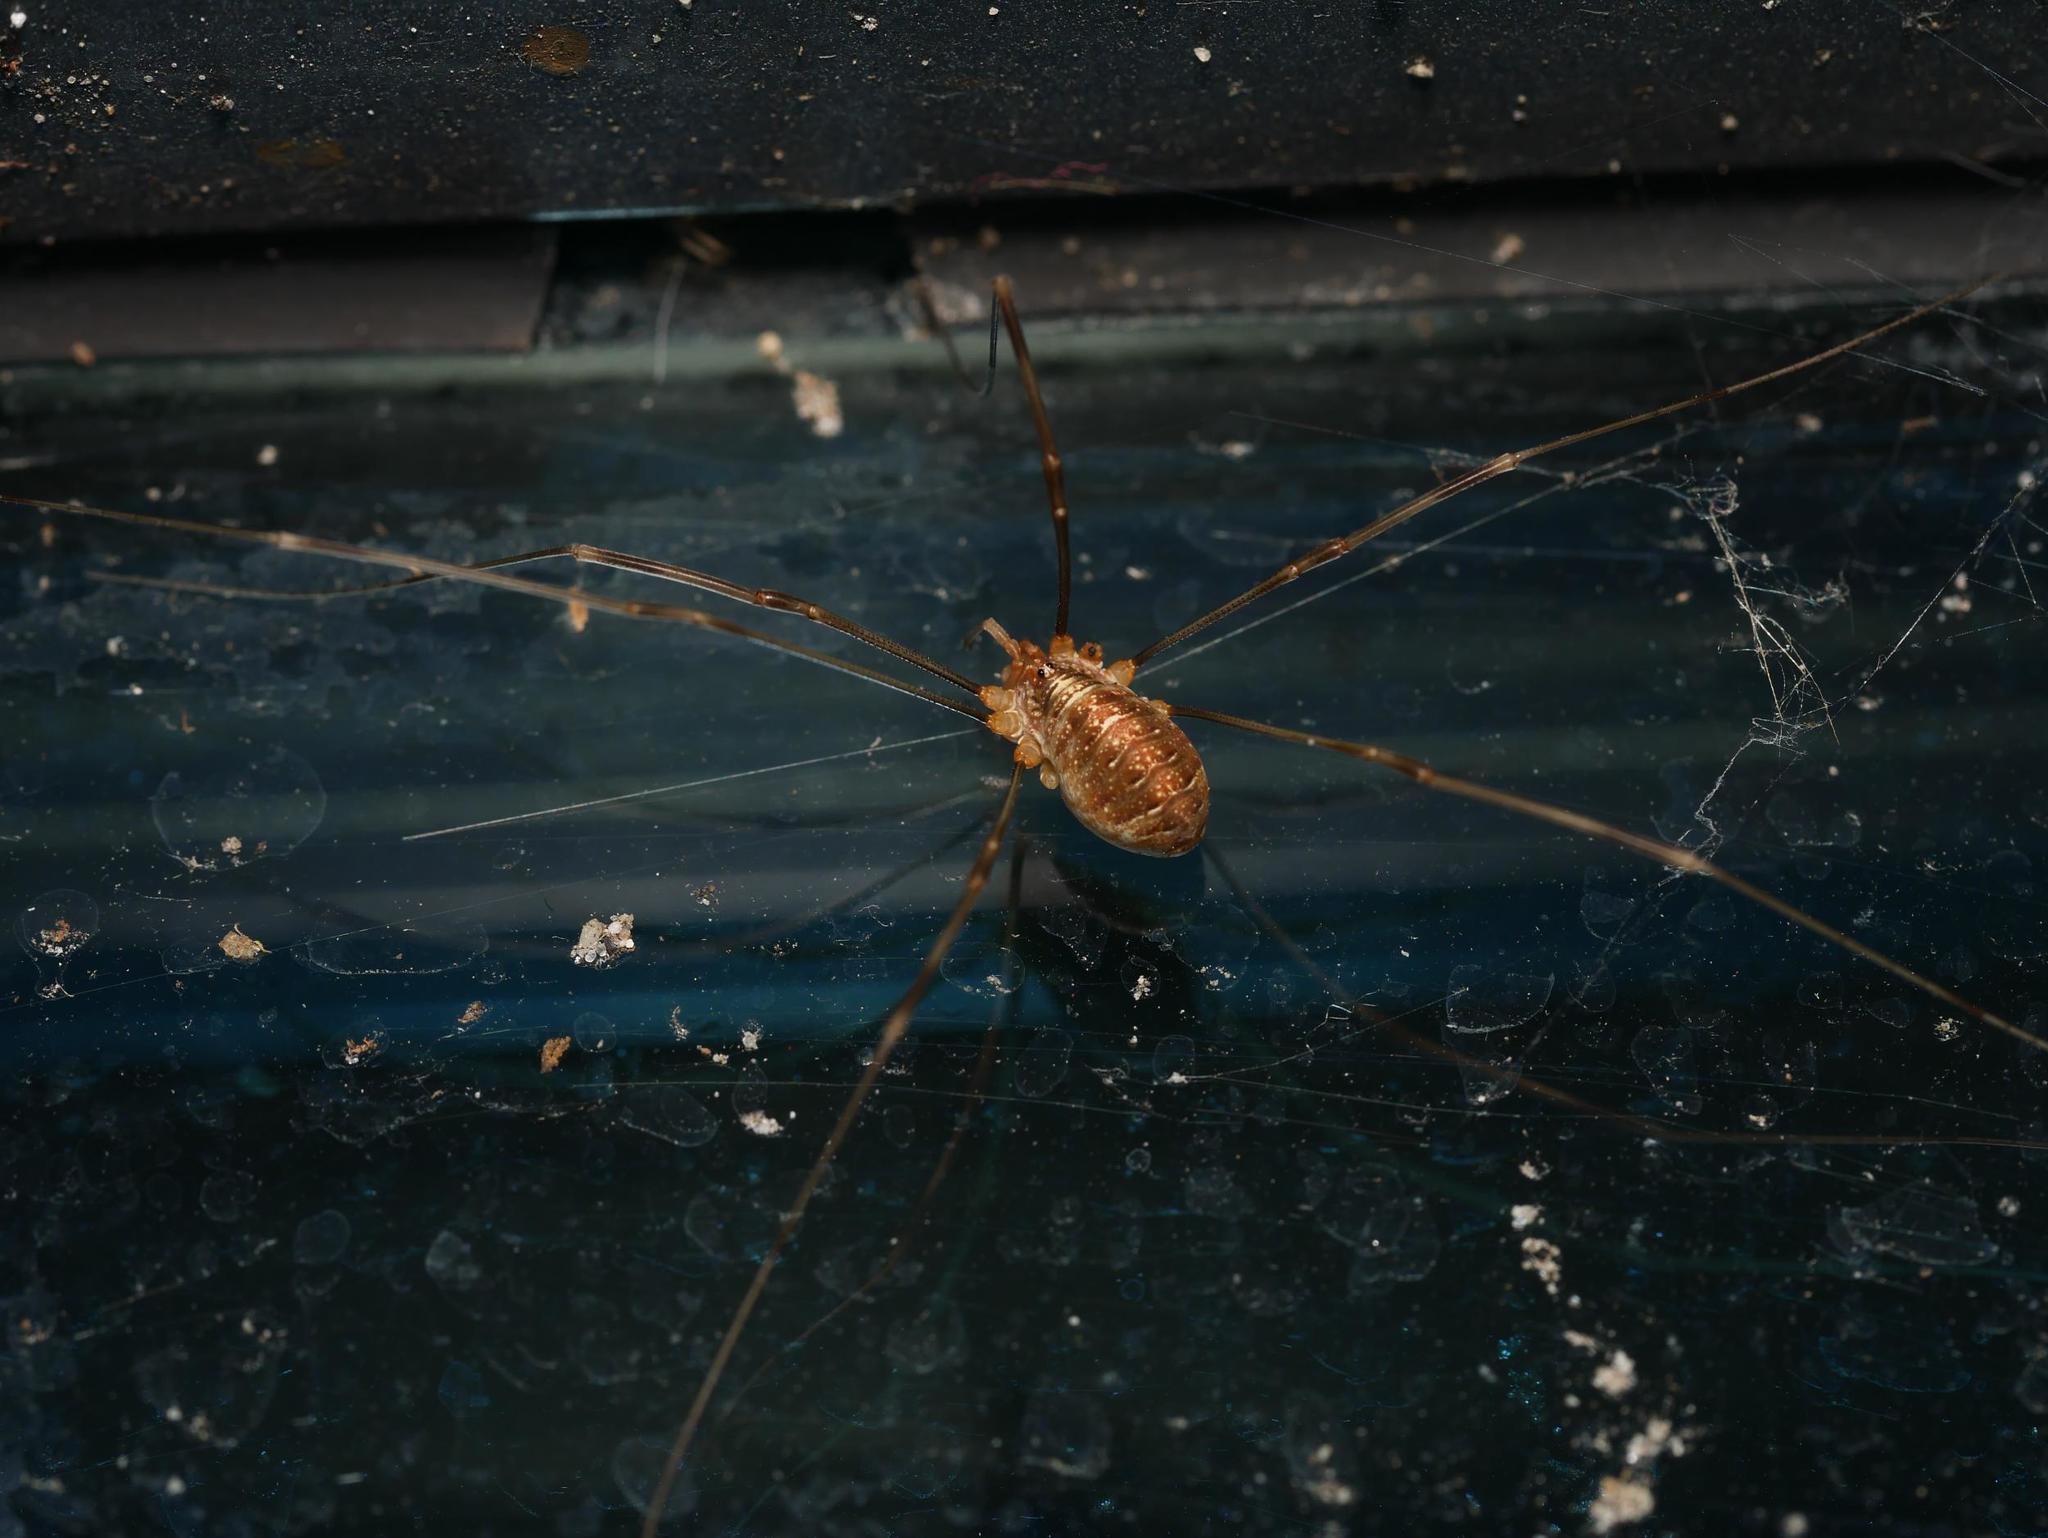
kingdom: Animalia
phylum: Arthropoda
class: Arachnida
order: Opiliones
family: Phalangiidae
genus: Opilio
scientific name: Opilio canestrinii
